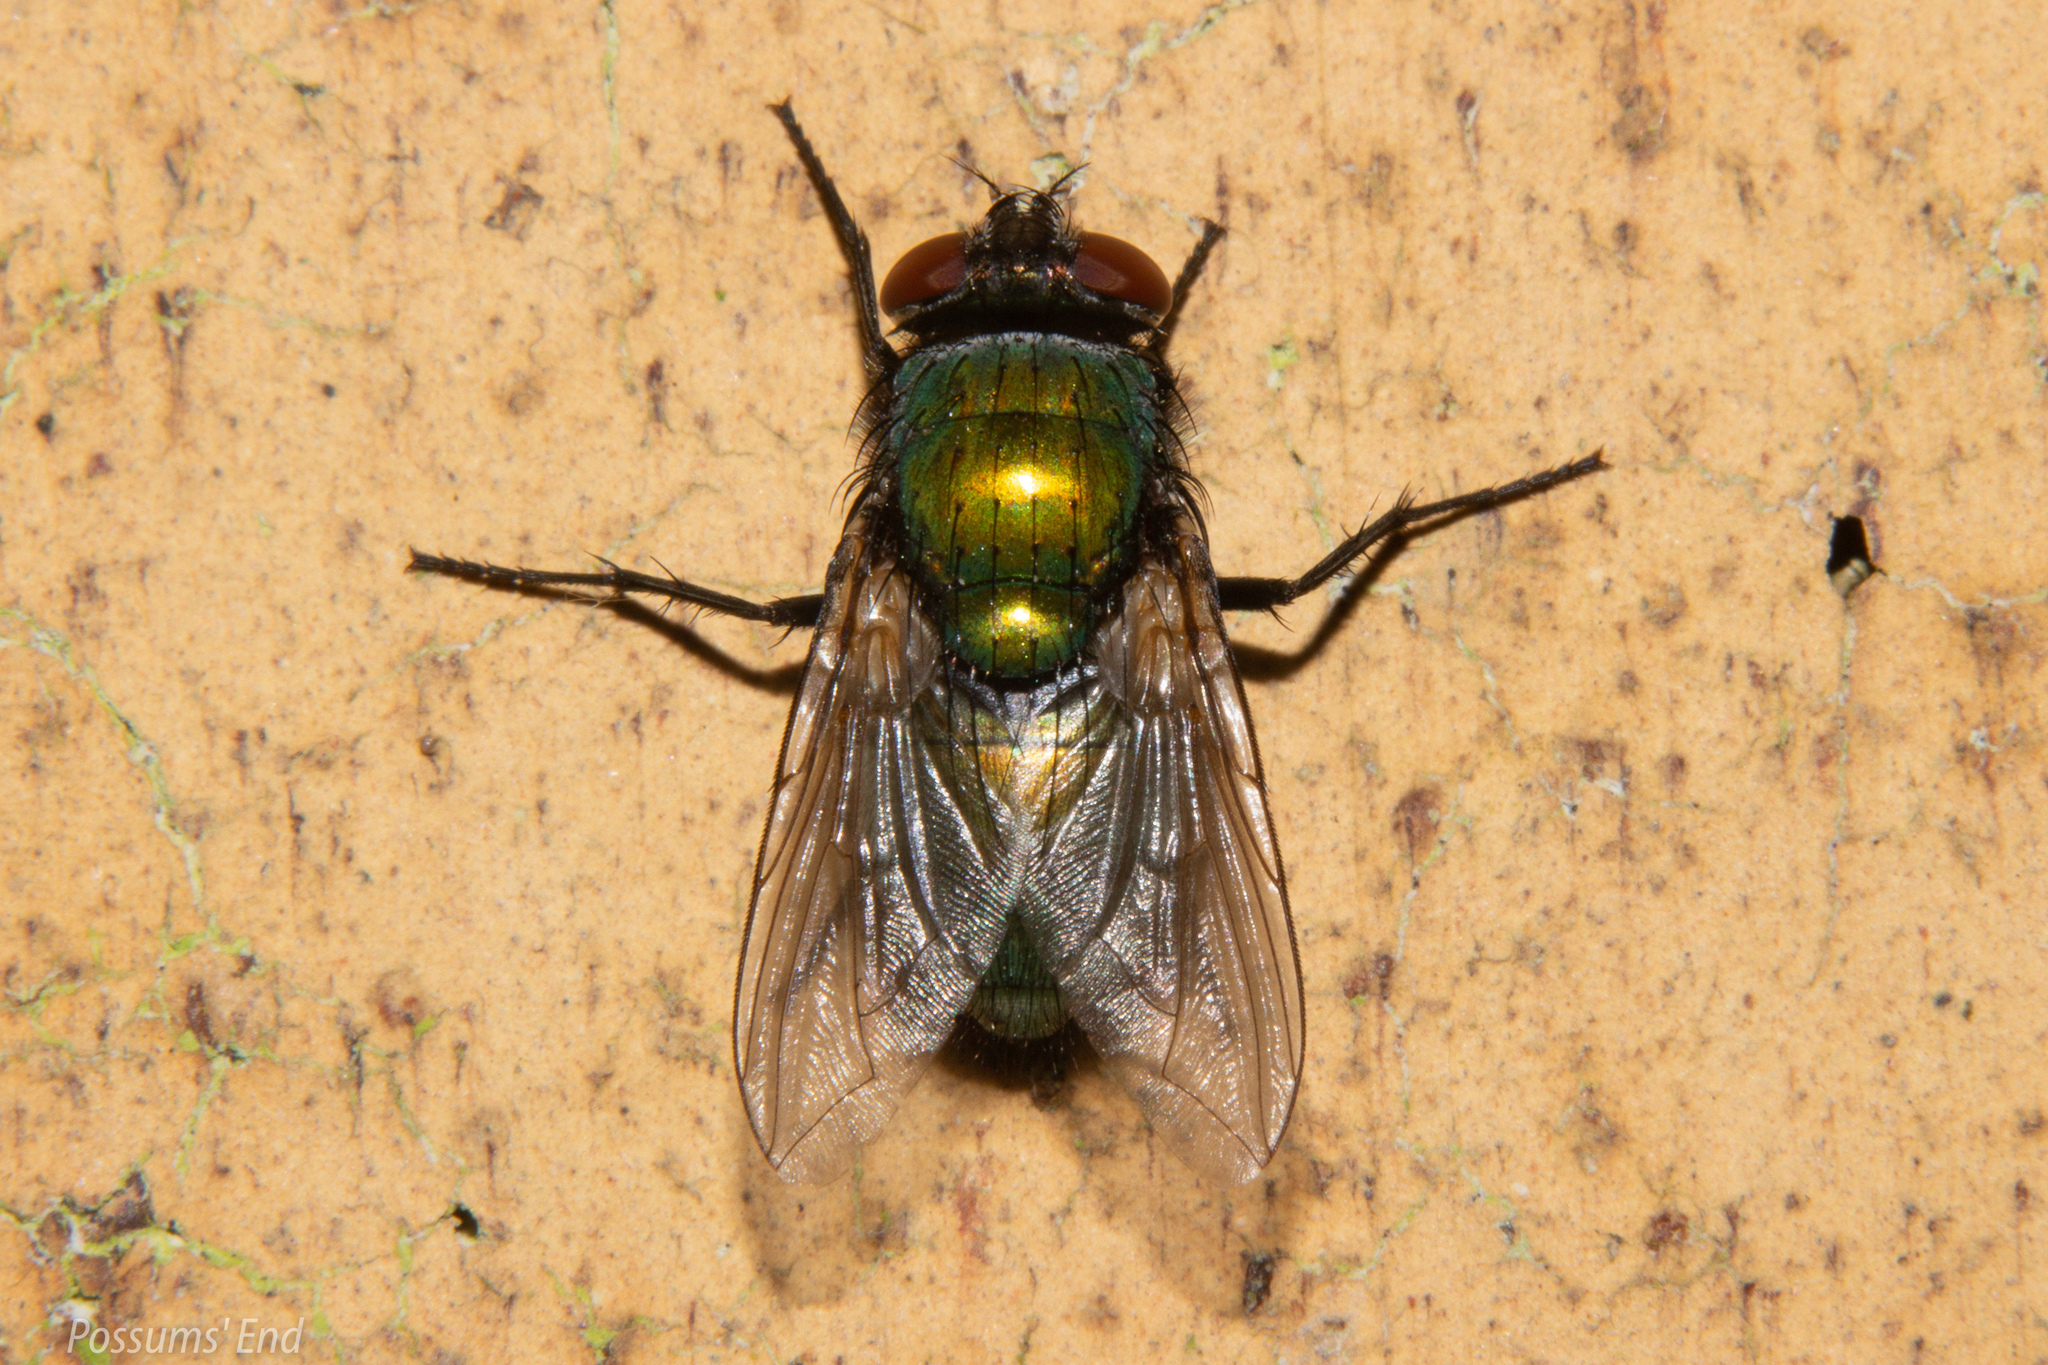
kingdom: Animalia
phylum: Arthropoda
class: Insecta
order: Diptera
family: Calliphoridae
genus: Lucilia
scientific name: Lucilia sericata
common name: Blow fly
